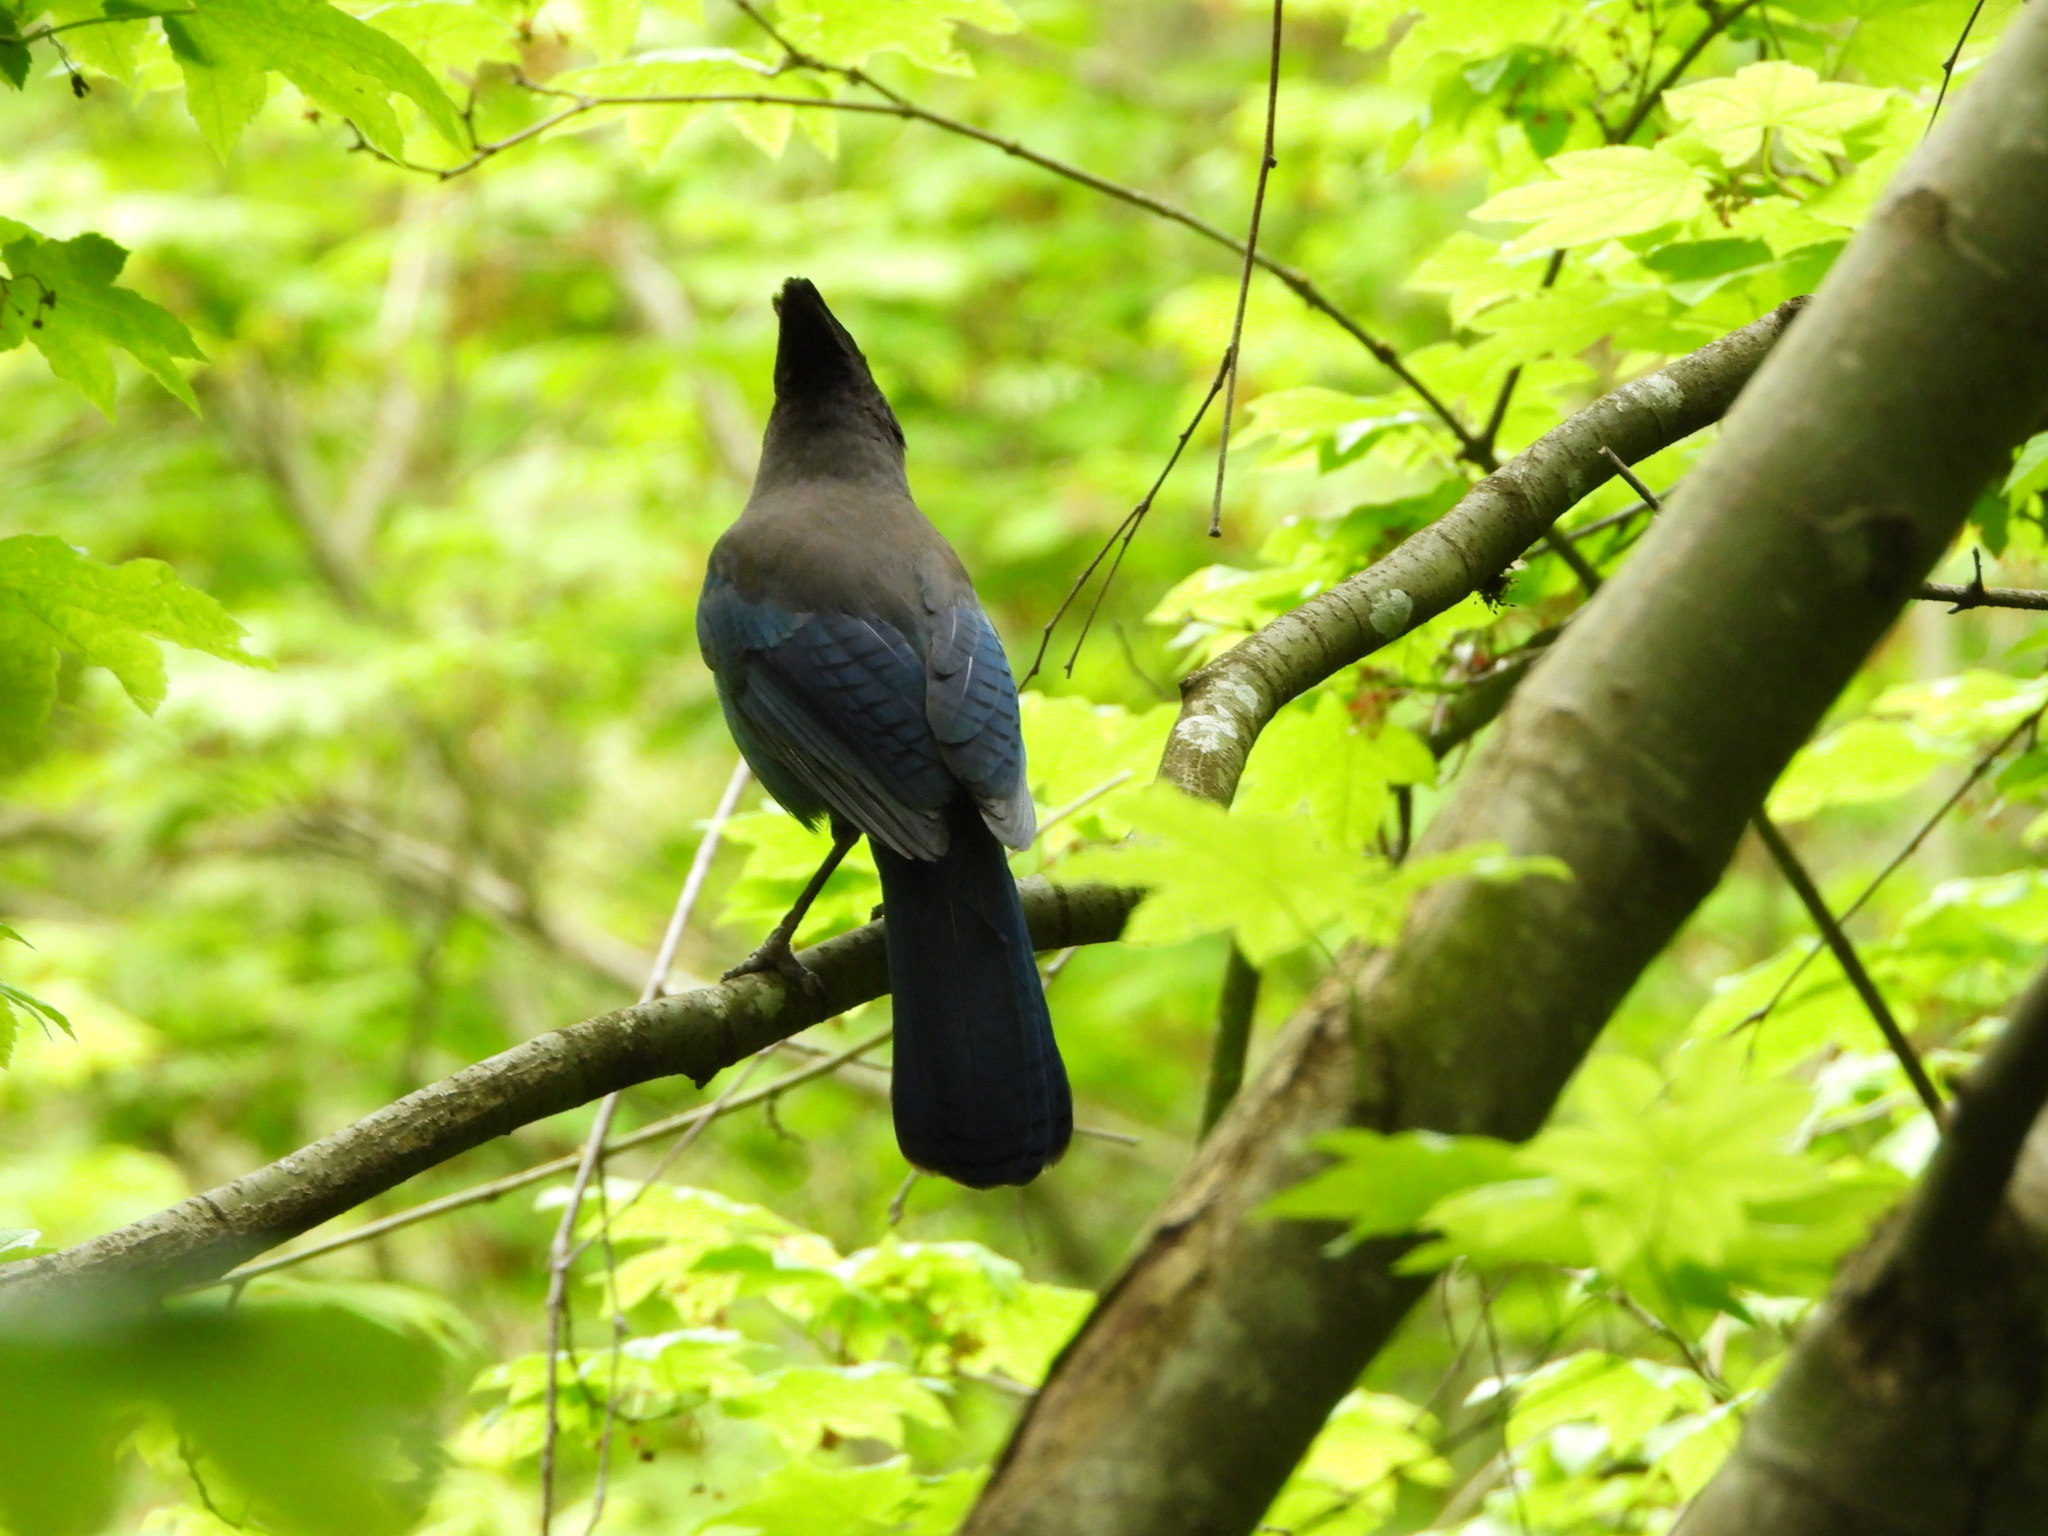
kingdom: Animalia
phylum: Chordata
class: Aves
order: Passeriformes
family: Corvidae
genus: Cyanocitta
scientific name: Cyanocitta stelleri
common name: Steller's jay
